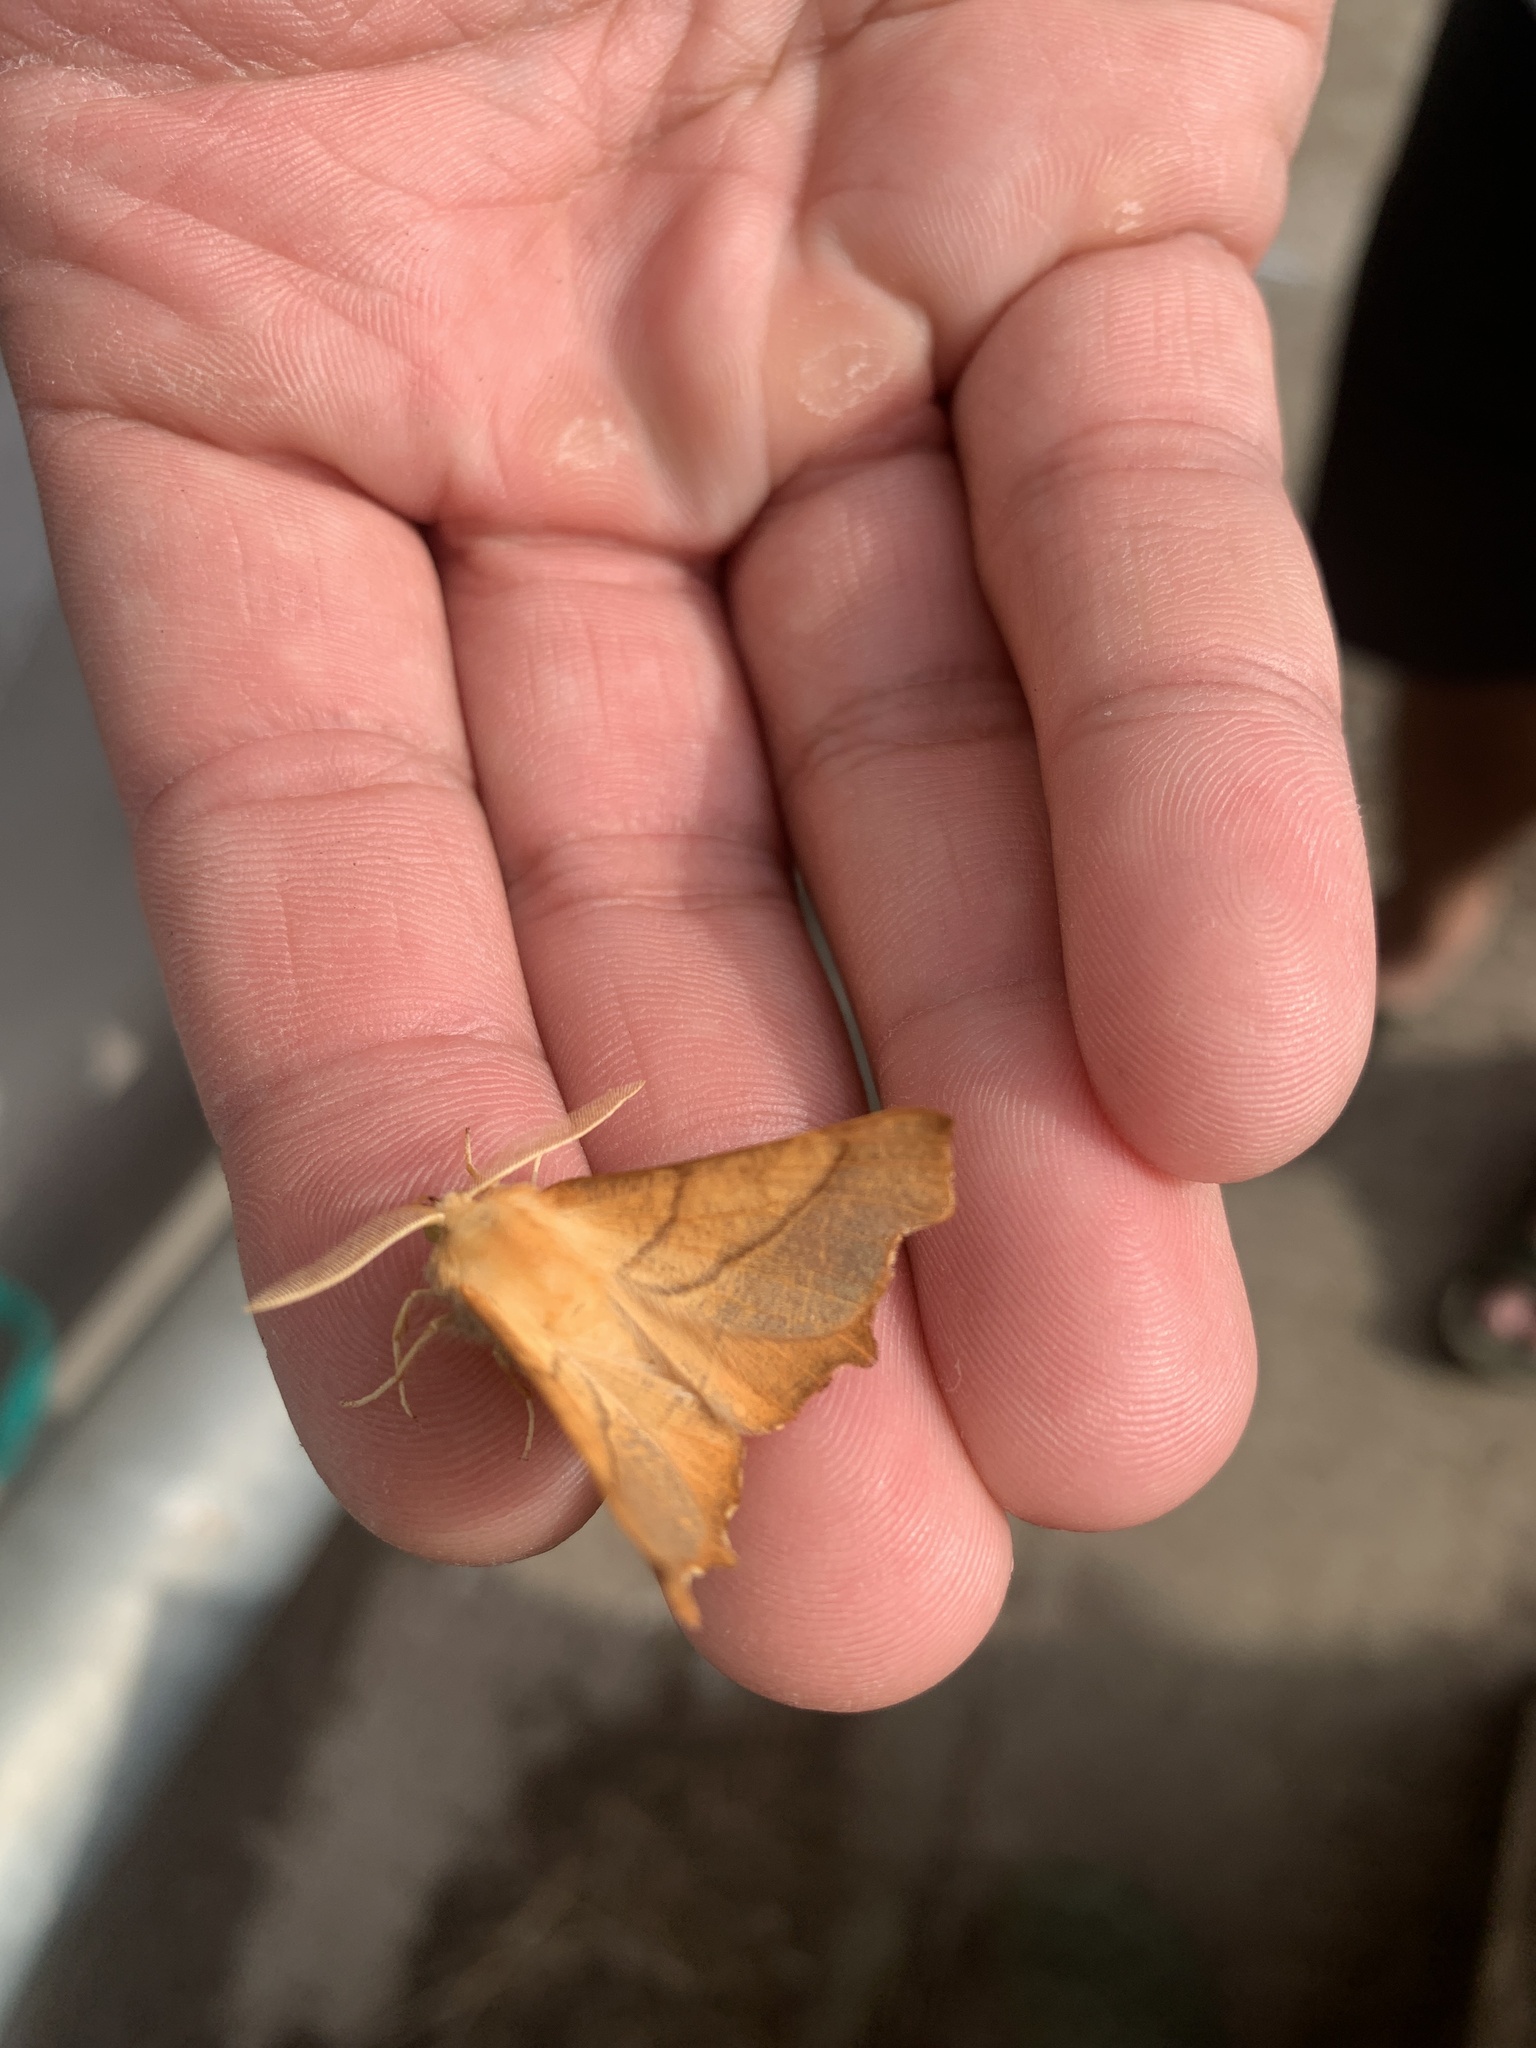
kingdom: Animalia
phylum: Arthropoda
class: Insecta
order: Lepidoptera
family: Geometridae
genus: Ennomos
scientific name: Ennomos fuscantaria
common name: Dusky thorn
